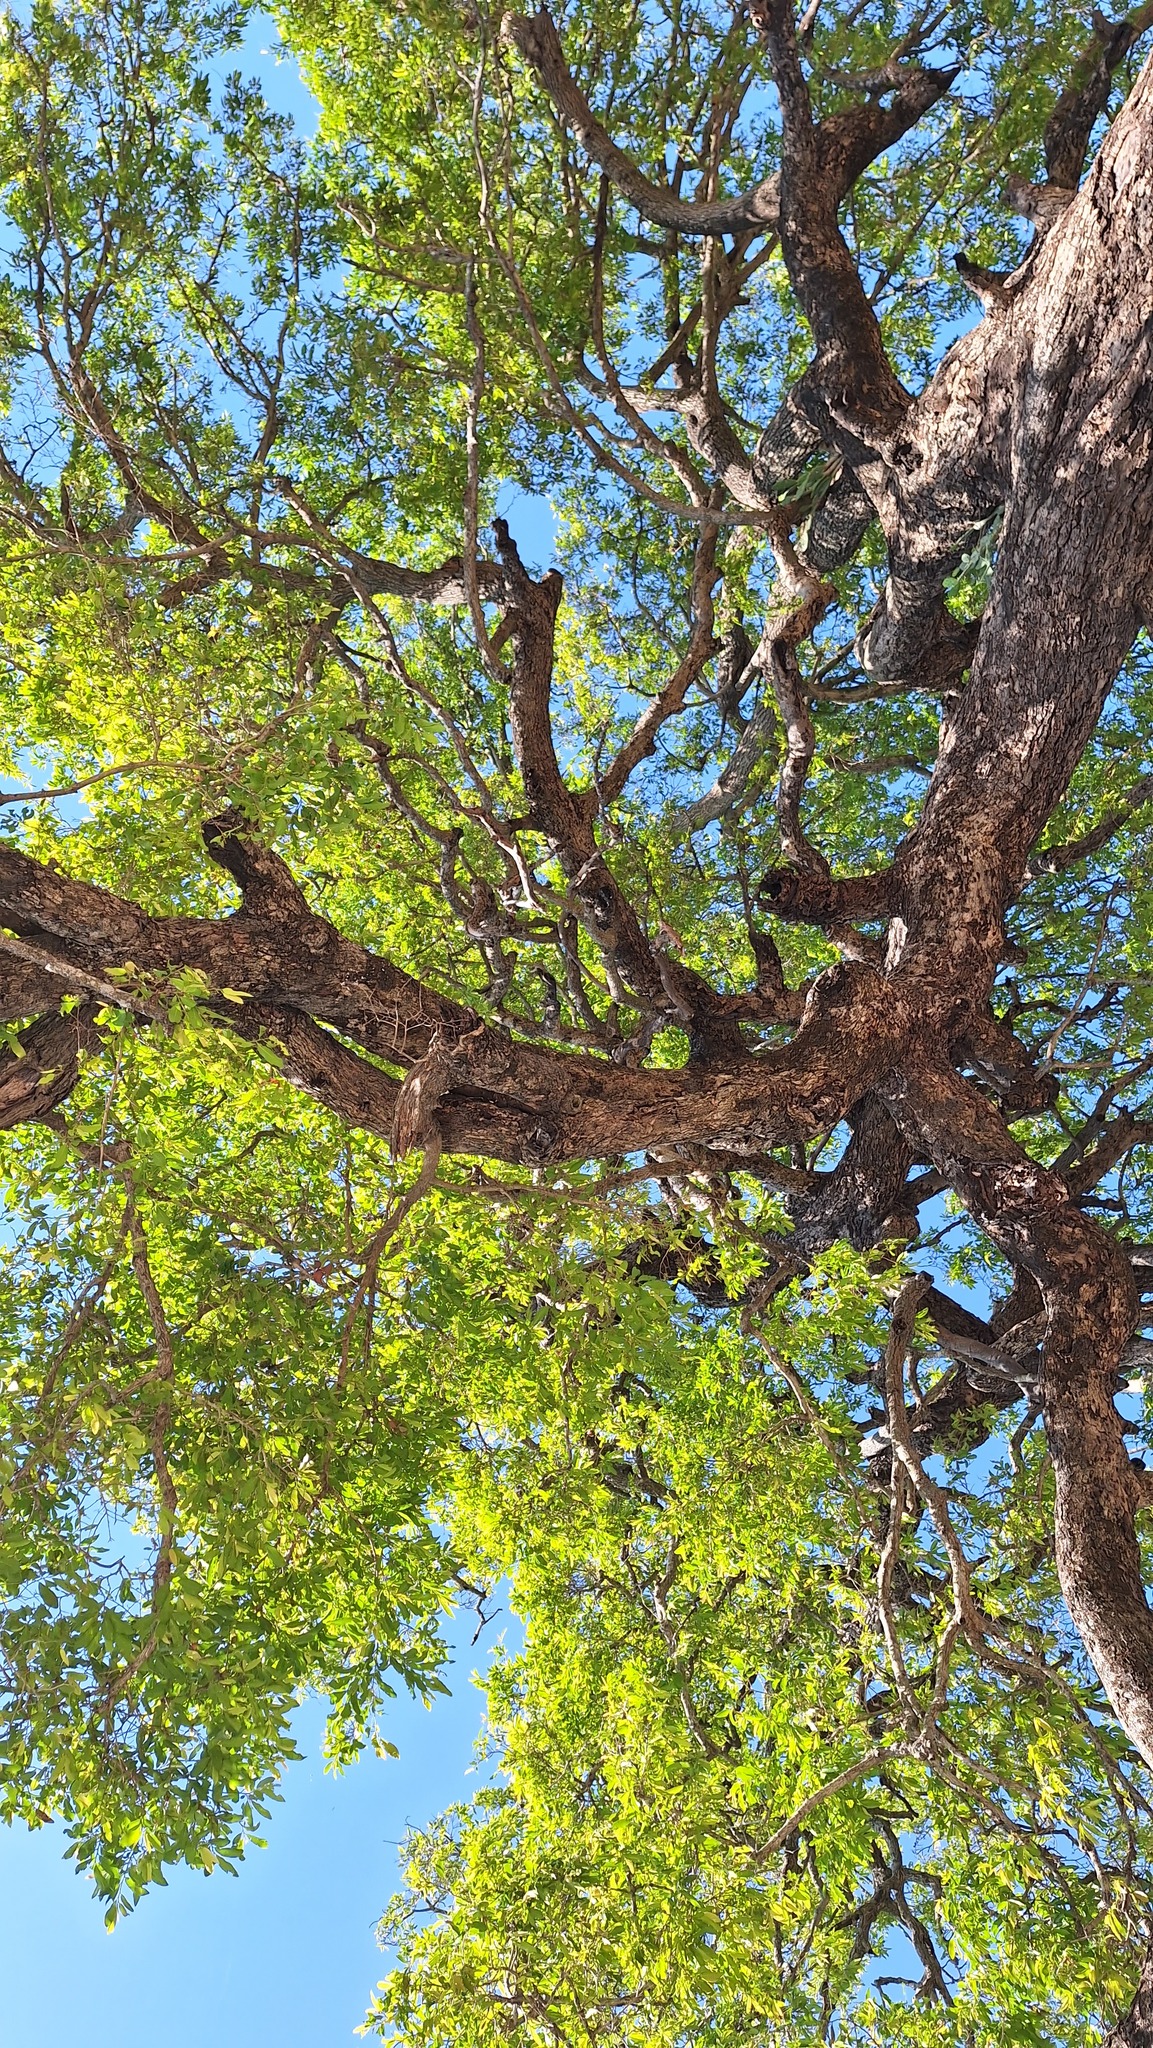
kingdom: Plantae
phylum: Tracheophyta
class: Magnoliopsida
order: Ericales
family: Ebenaceae
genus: Diospyros
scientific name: Diospyros mespiliformis
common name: Ebony diospyros
